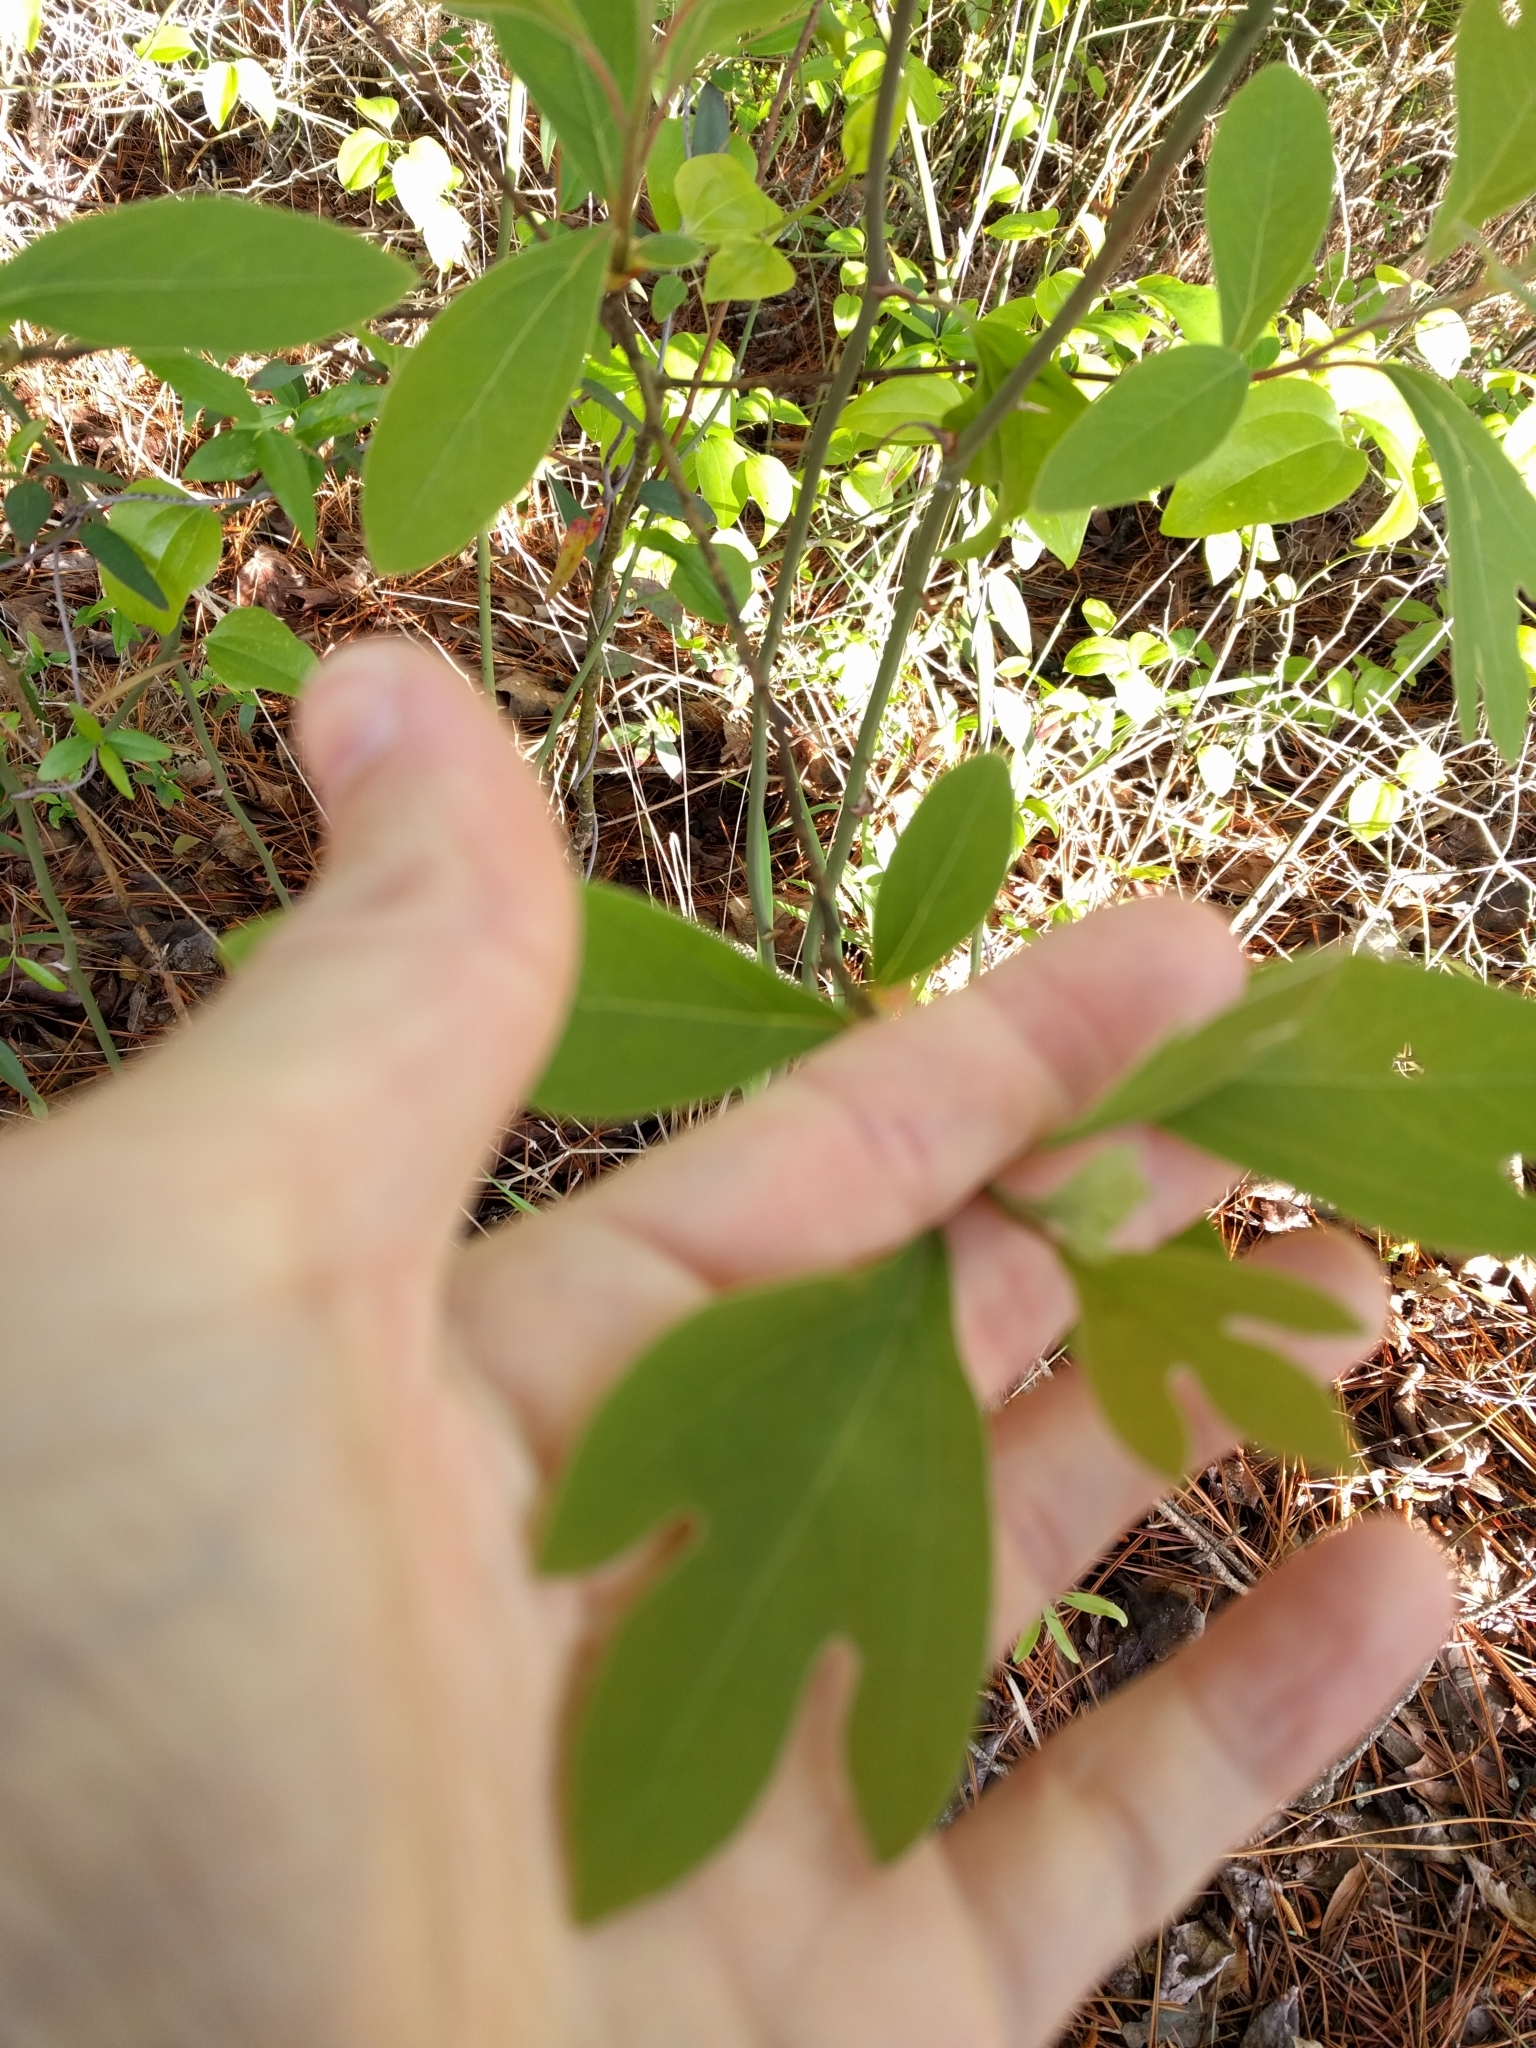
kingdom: Plantae
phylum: Tracheophyta
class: Magnoliopsida
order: Laurales
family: Lauraceae
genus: Sassafras
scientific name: Sassafras albidum
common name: Sassafras
